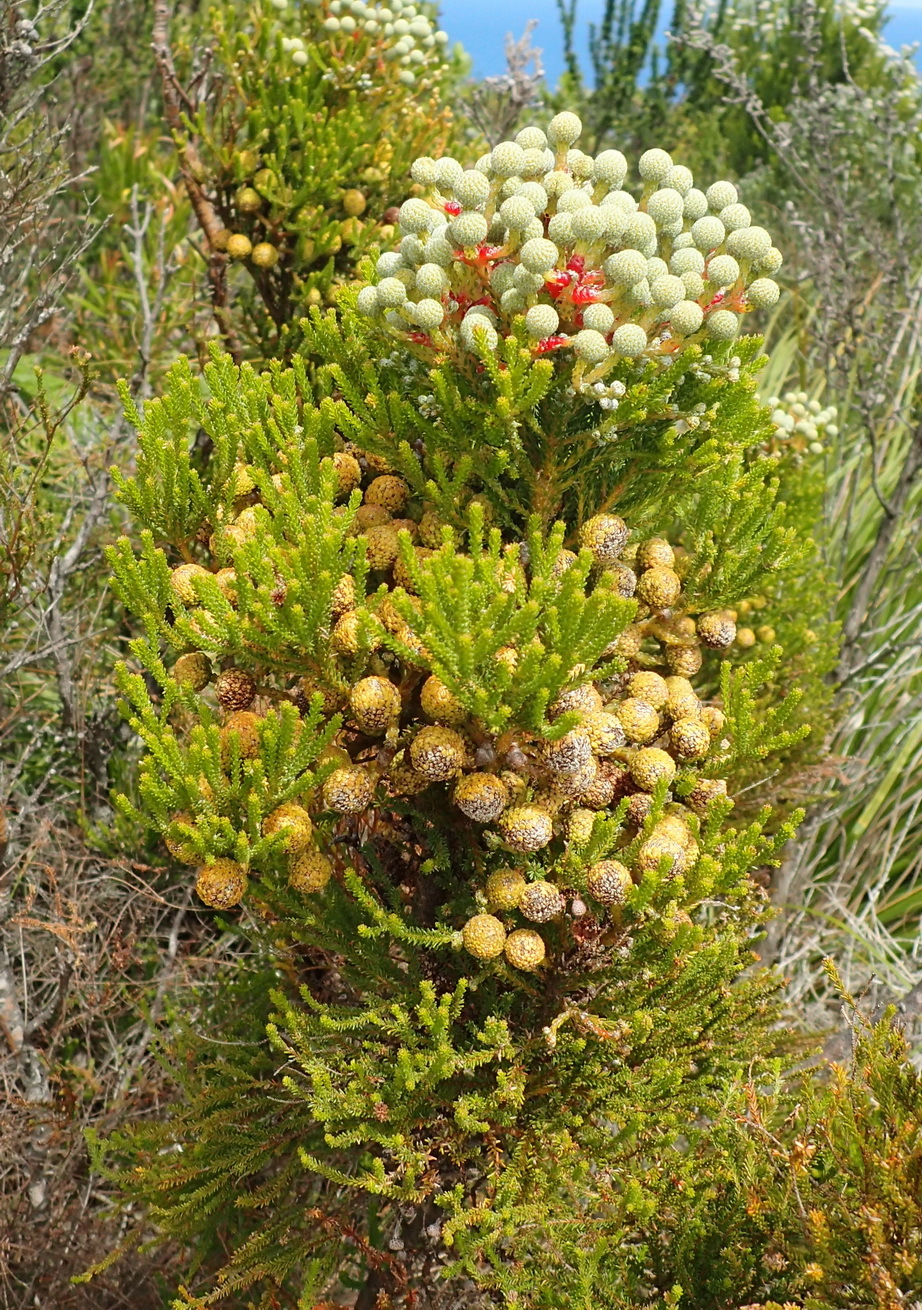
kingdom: Plantae
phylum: Tracheophyta
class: Magnoliopsida
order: Bruniales
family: Bruniaceae
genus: Berzelia
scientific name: Berzelia intermedia
